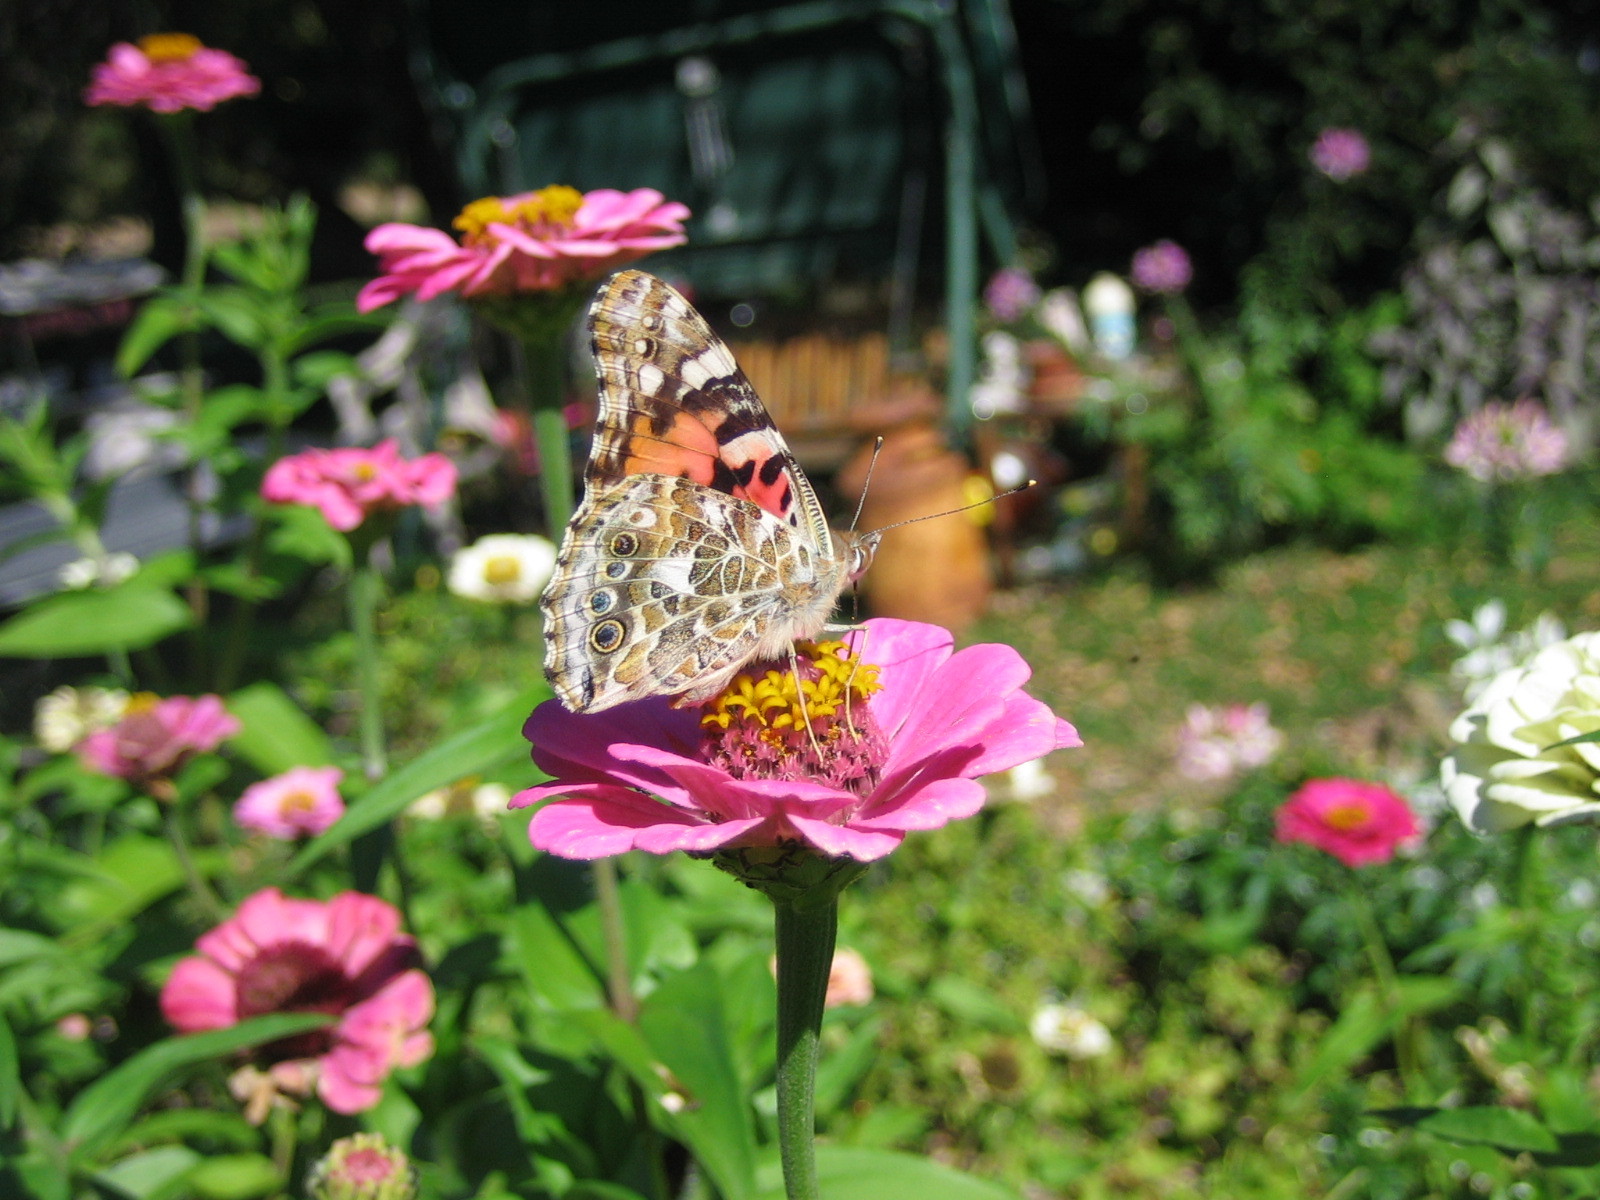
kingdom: Animalia
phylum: Arthropoda
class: Insecta
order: Lepidoptera
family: Nymphalidae
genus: Vanessa
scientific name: Vanessa cardui
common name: Painted lady
